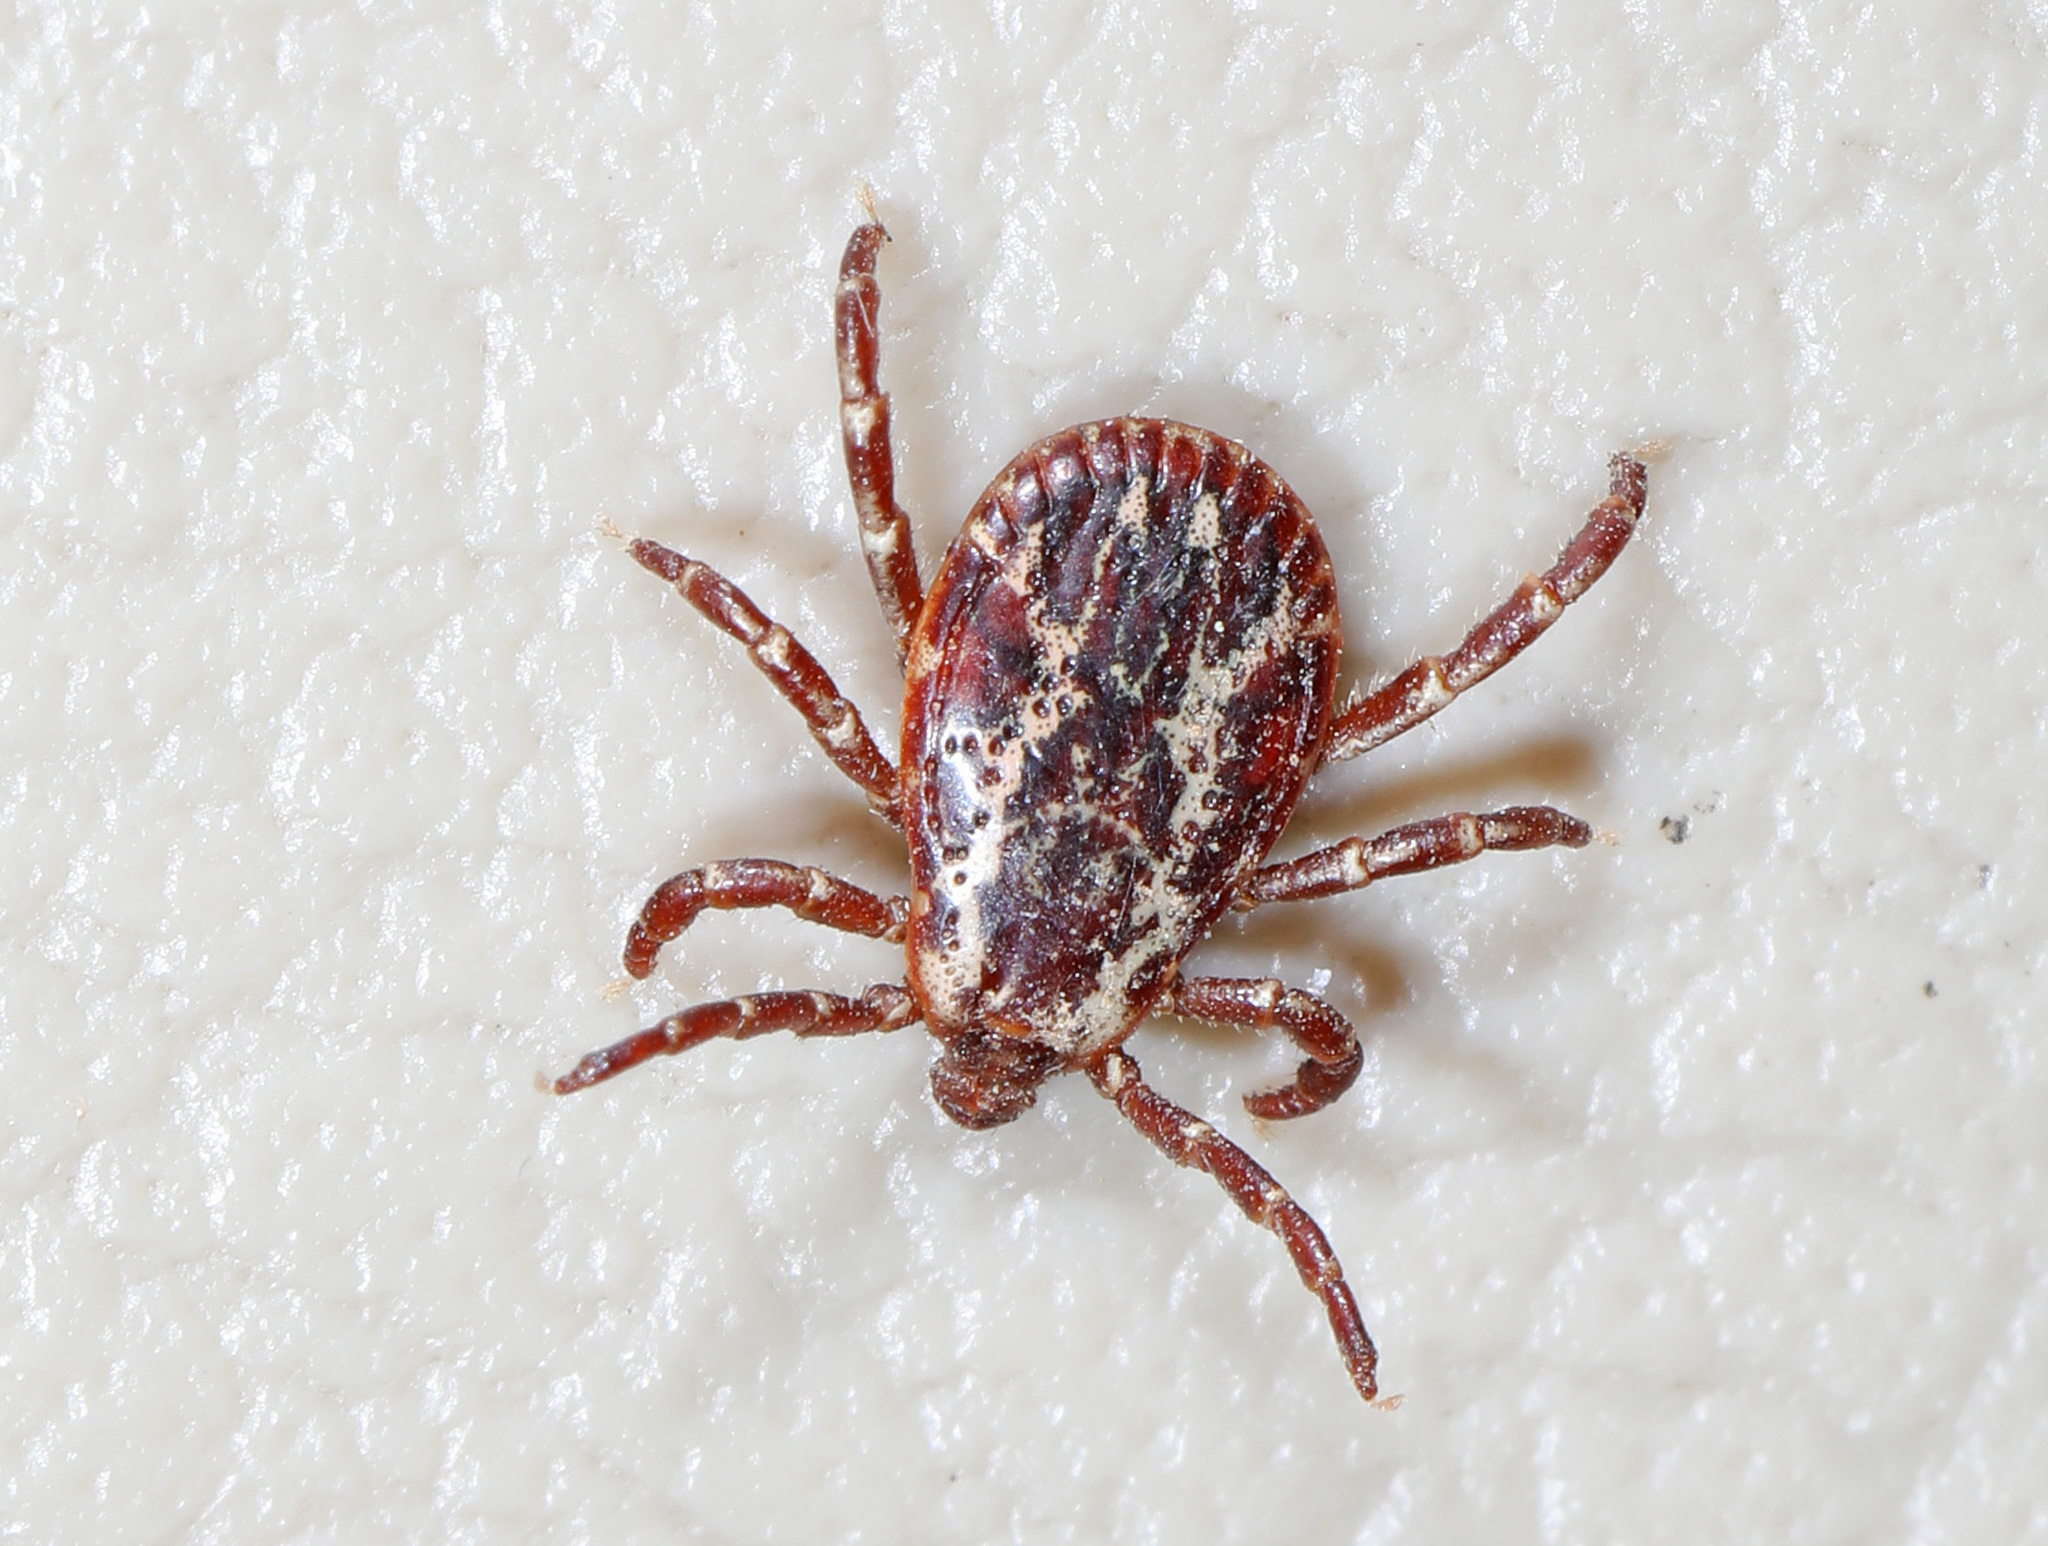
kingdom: Animalia
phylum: Arthropoda
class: Arachnida
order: Ixodida
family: Ixodidae
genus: Dermacentor
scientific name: Dermacentor variabilis
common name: American dog tick
